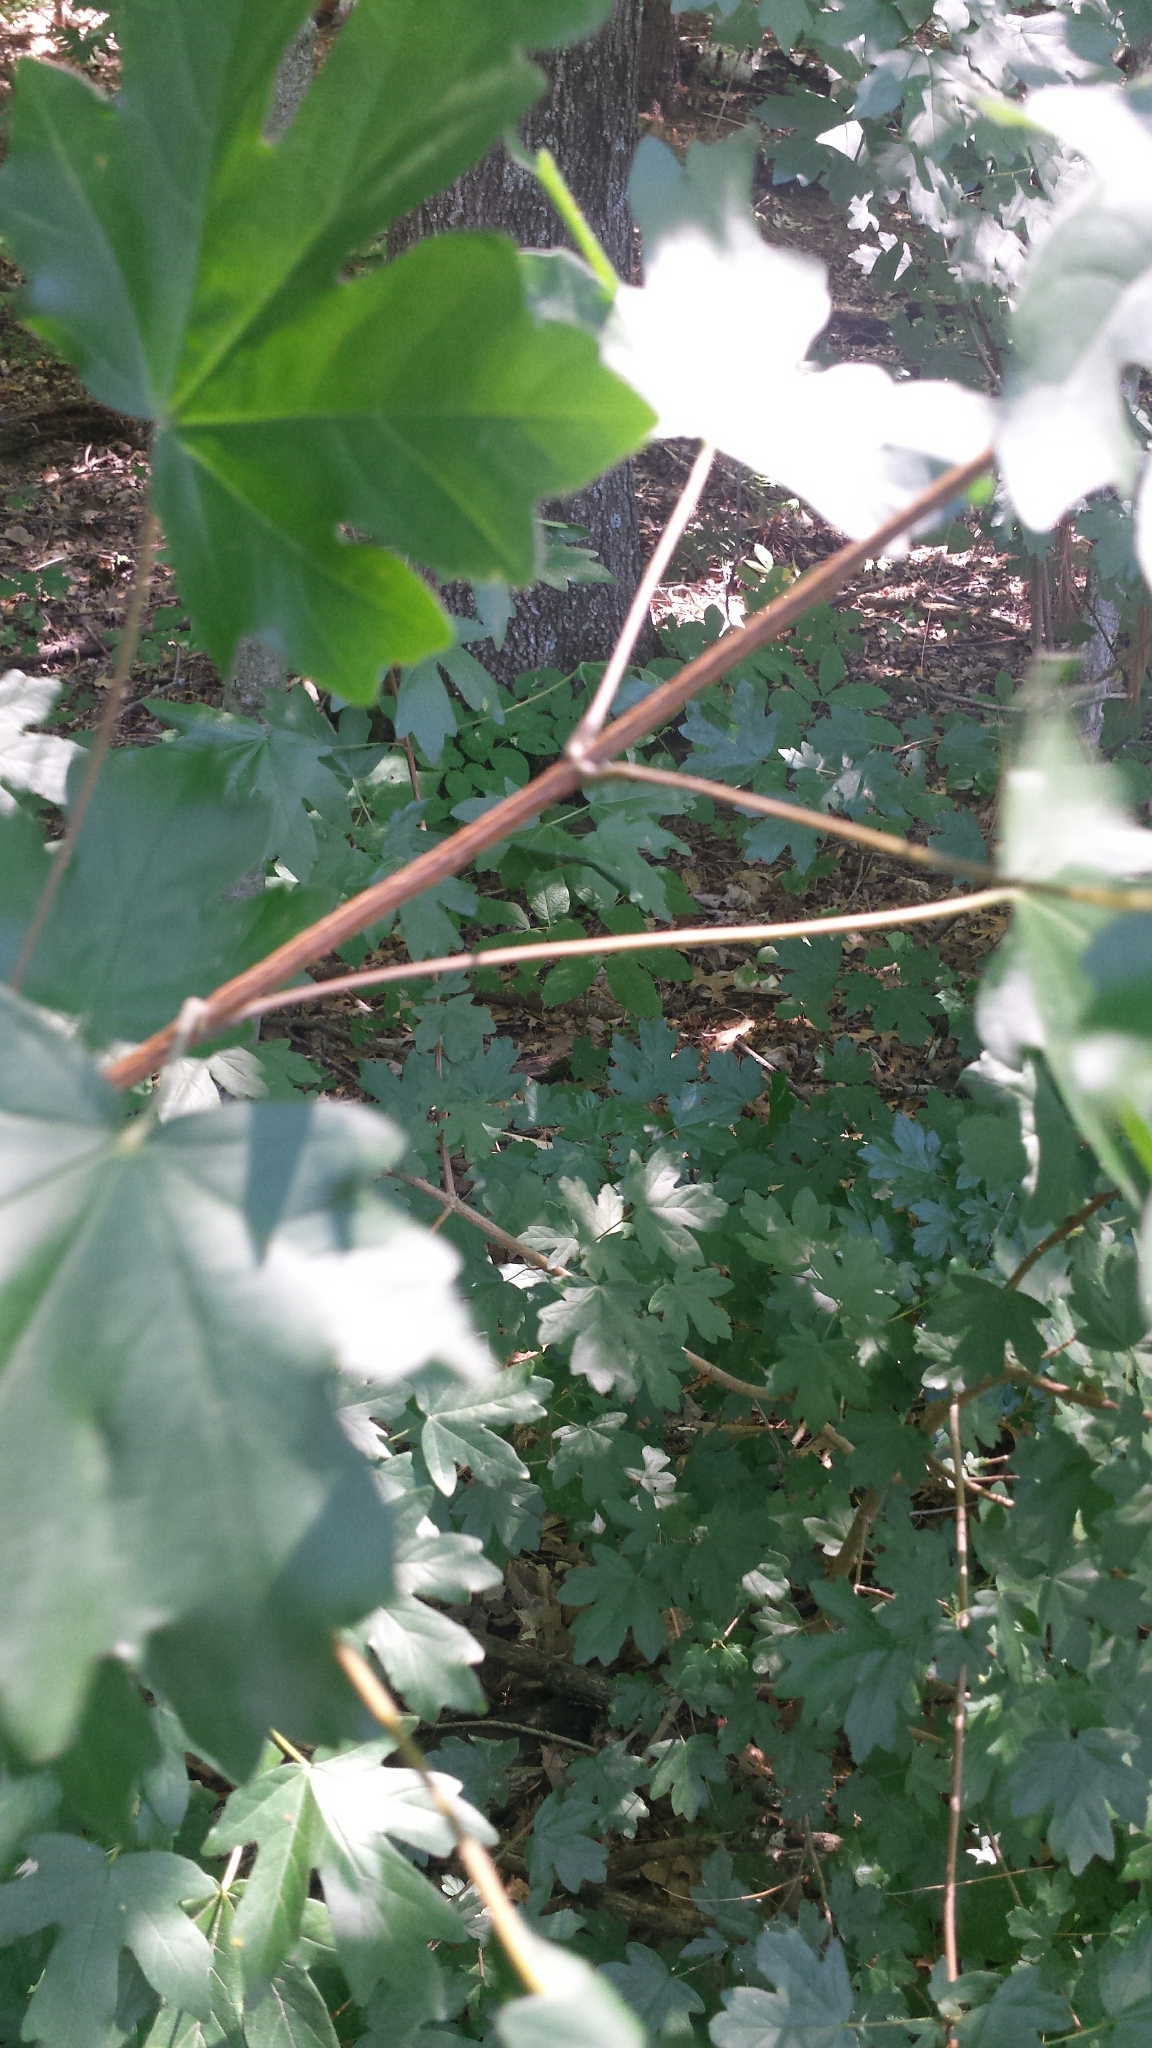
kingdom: Plantae
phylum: Tracheophyta
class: Magnoliopsida
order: Sapindales
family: Sapindaceae
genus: Acer
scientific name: Acer campestre
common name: Field maple
